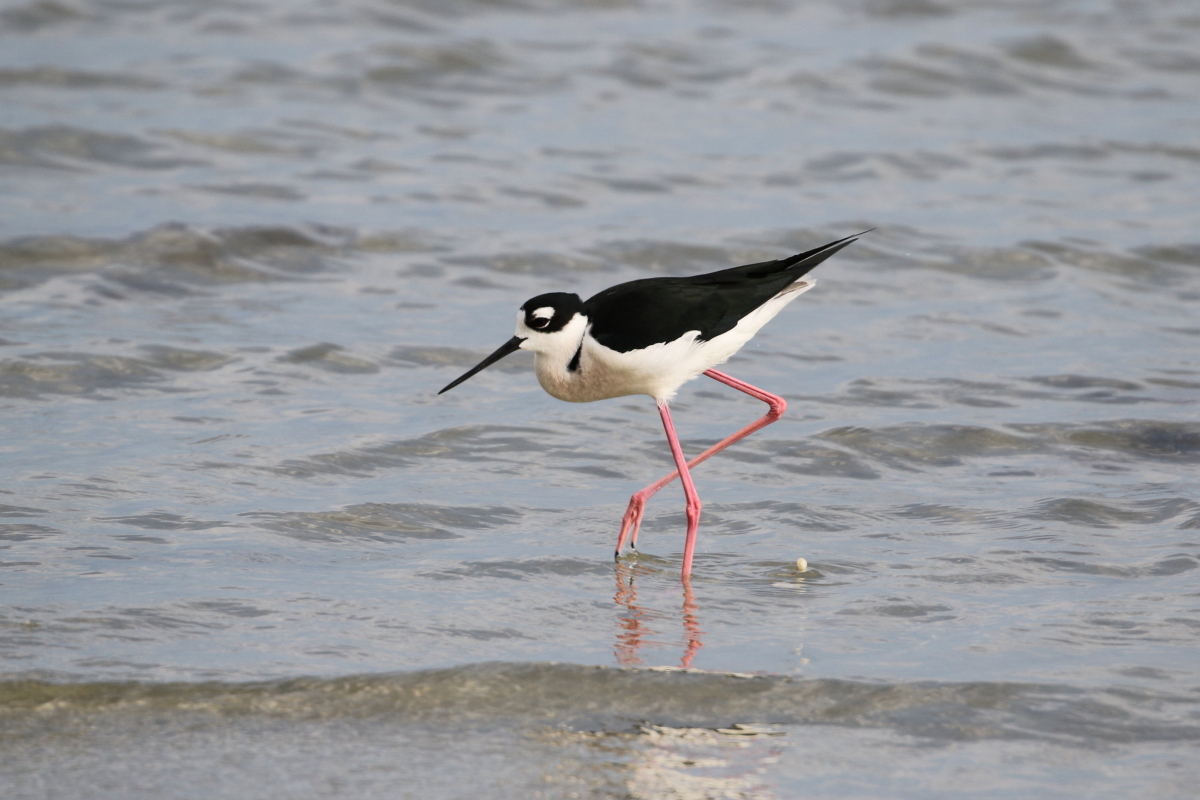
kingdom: Animalia
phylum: Chordata
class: Aves
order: Charadriiformes
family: Recurvirostridae
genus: Himantopus
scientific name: Himantopus mexicanus
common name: Black-necked stilt
